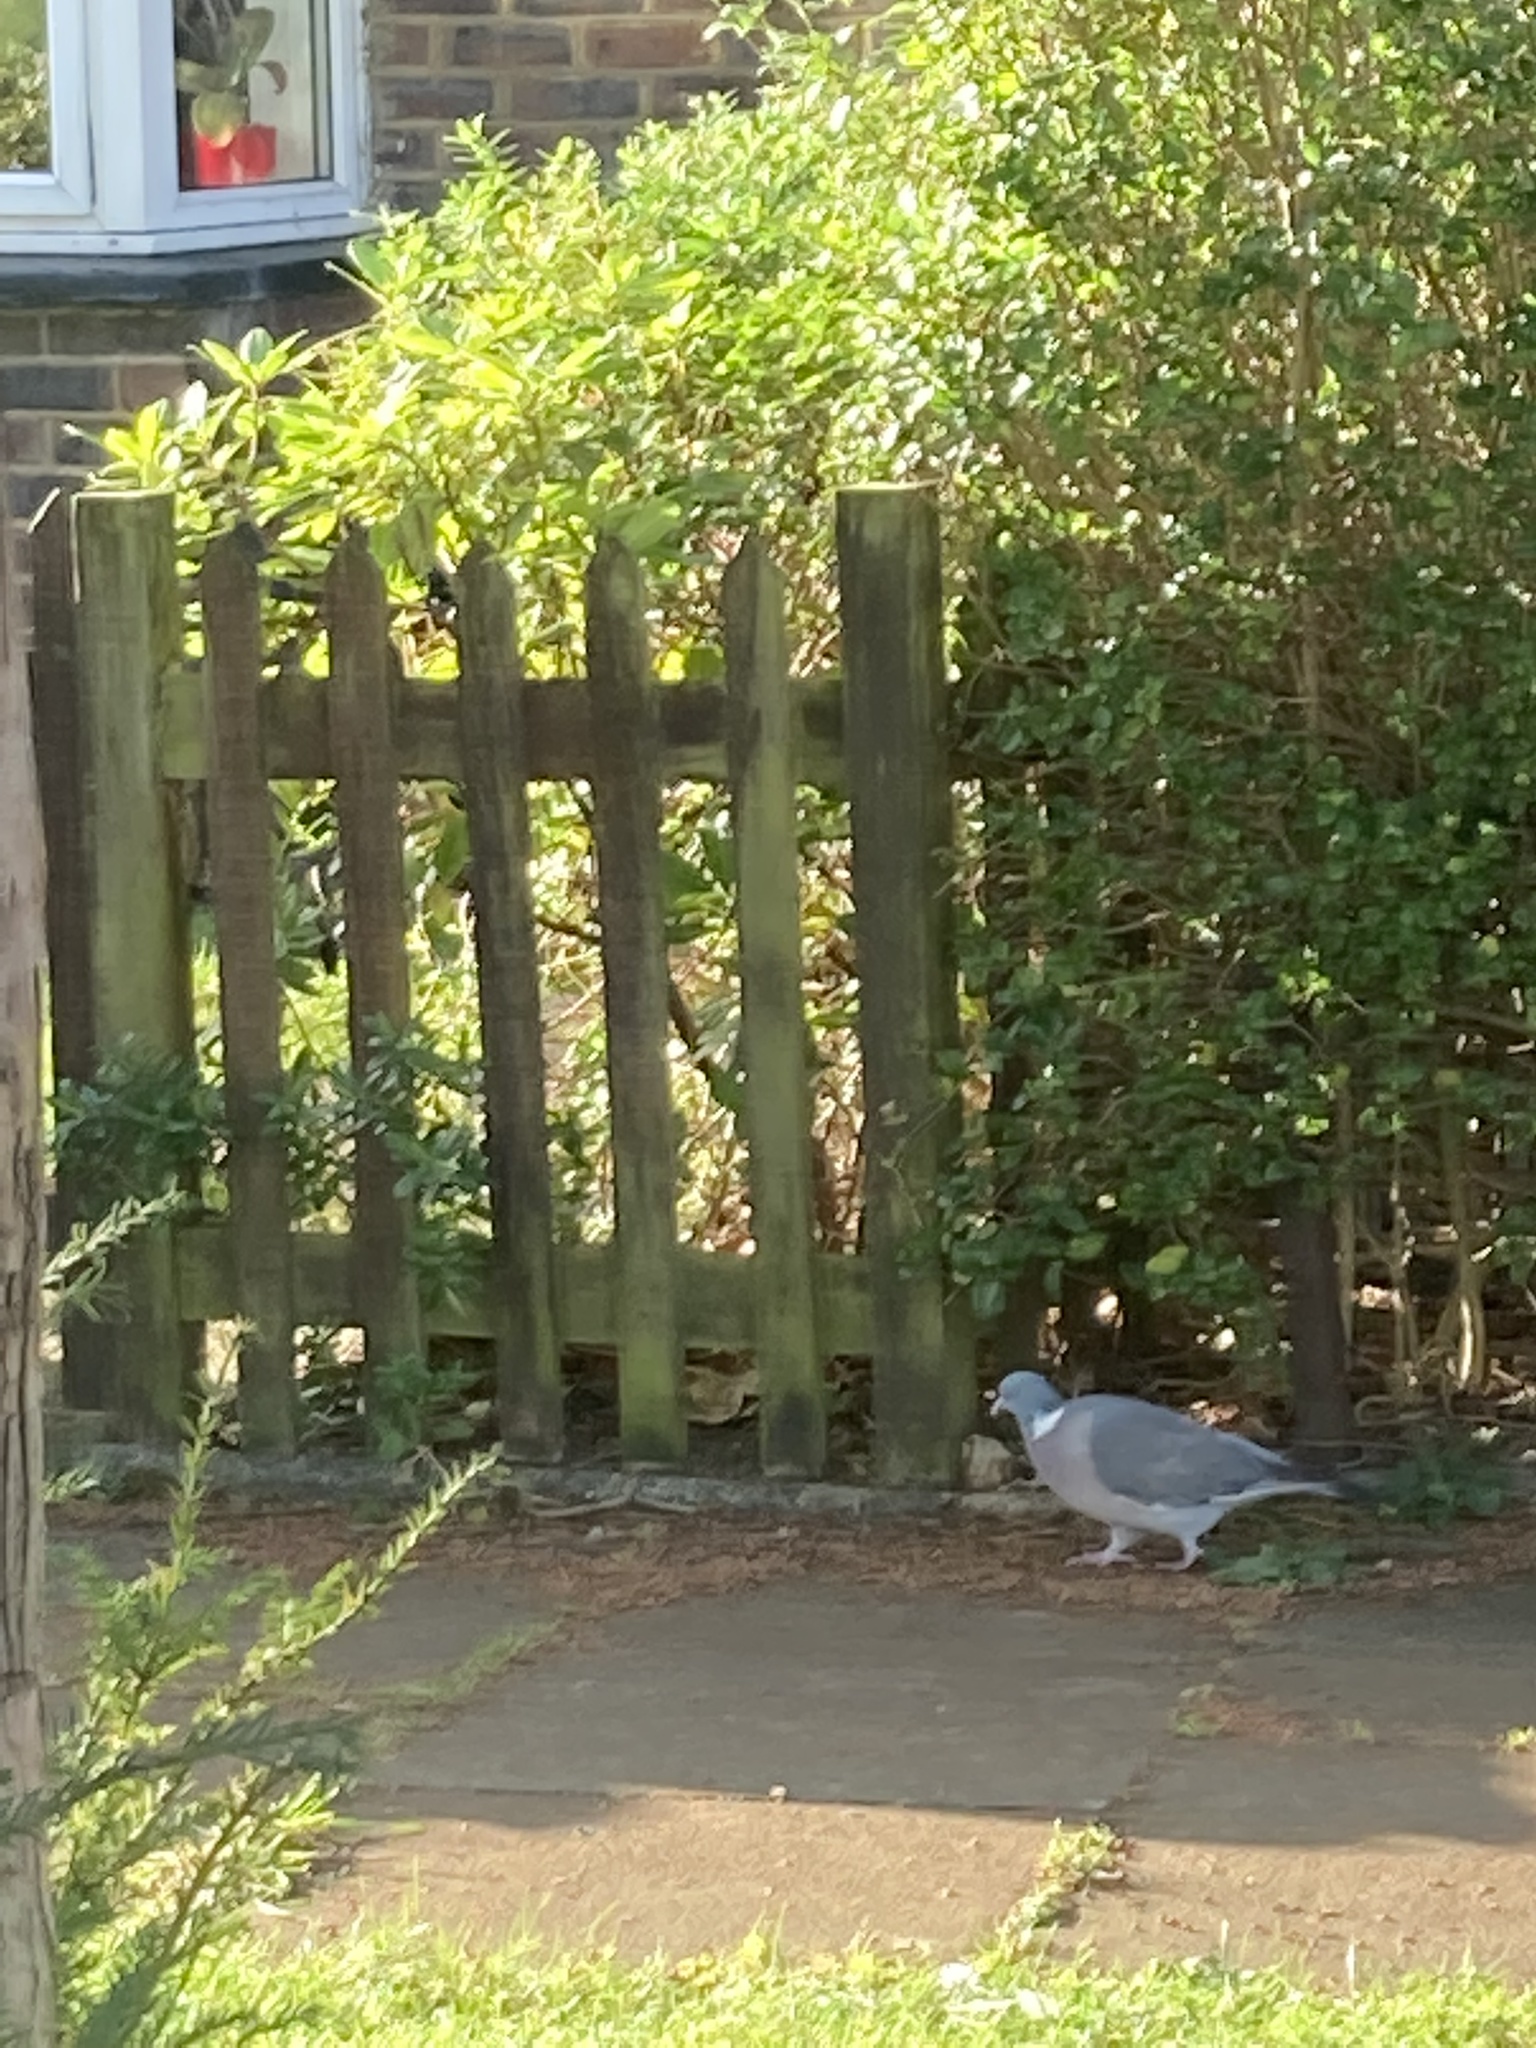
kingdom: Animalia
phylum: Chordata
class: Aves
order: Columbiformes
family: Columbidae
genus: Columba
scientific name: Columba palumbus
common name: Common wood pigeon
